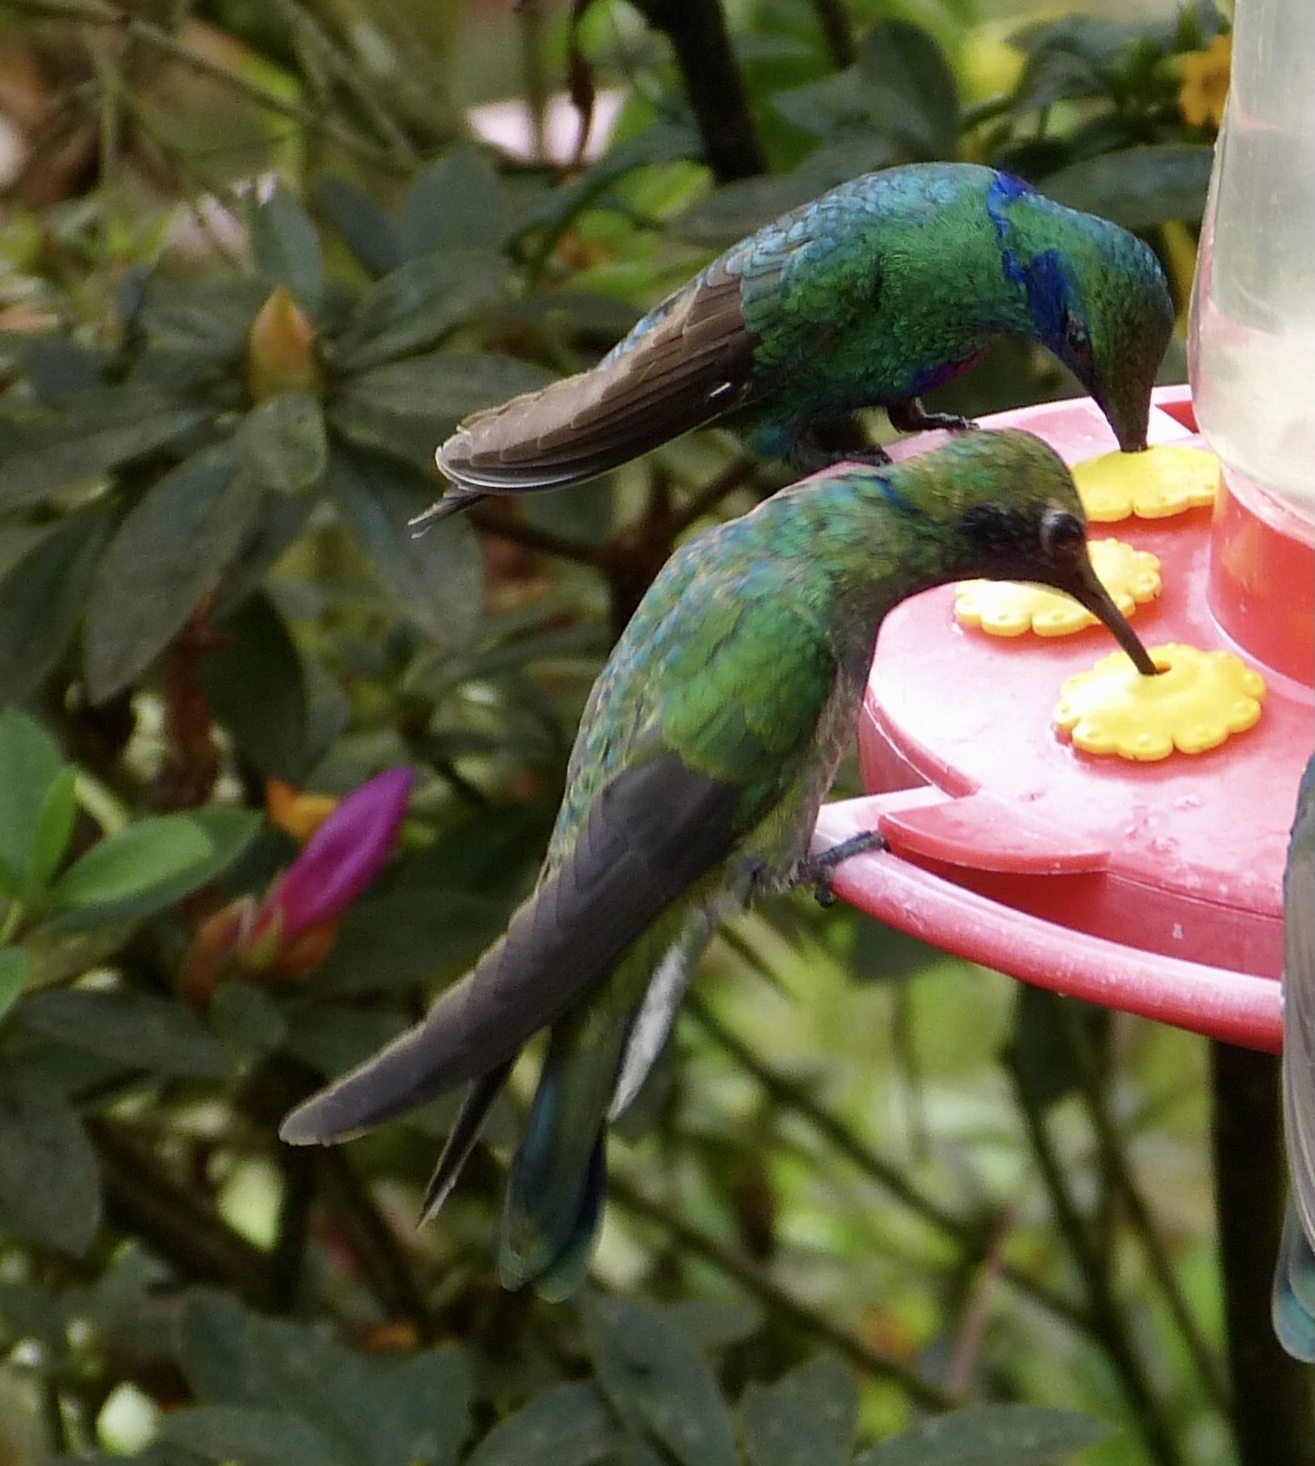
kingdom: Animalia
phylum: Chordata
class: Aves
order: Apodiformes
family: Trochilidae
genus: Colibri
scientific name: Colibri coruscans
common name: Sparkling violetear
